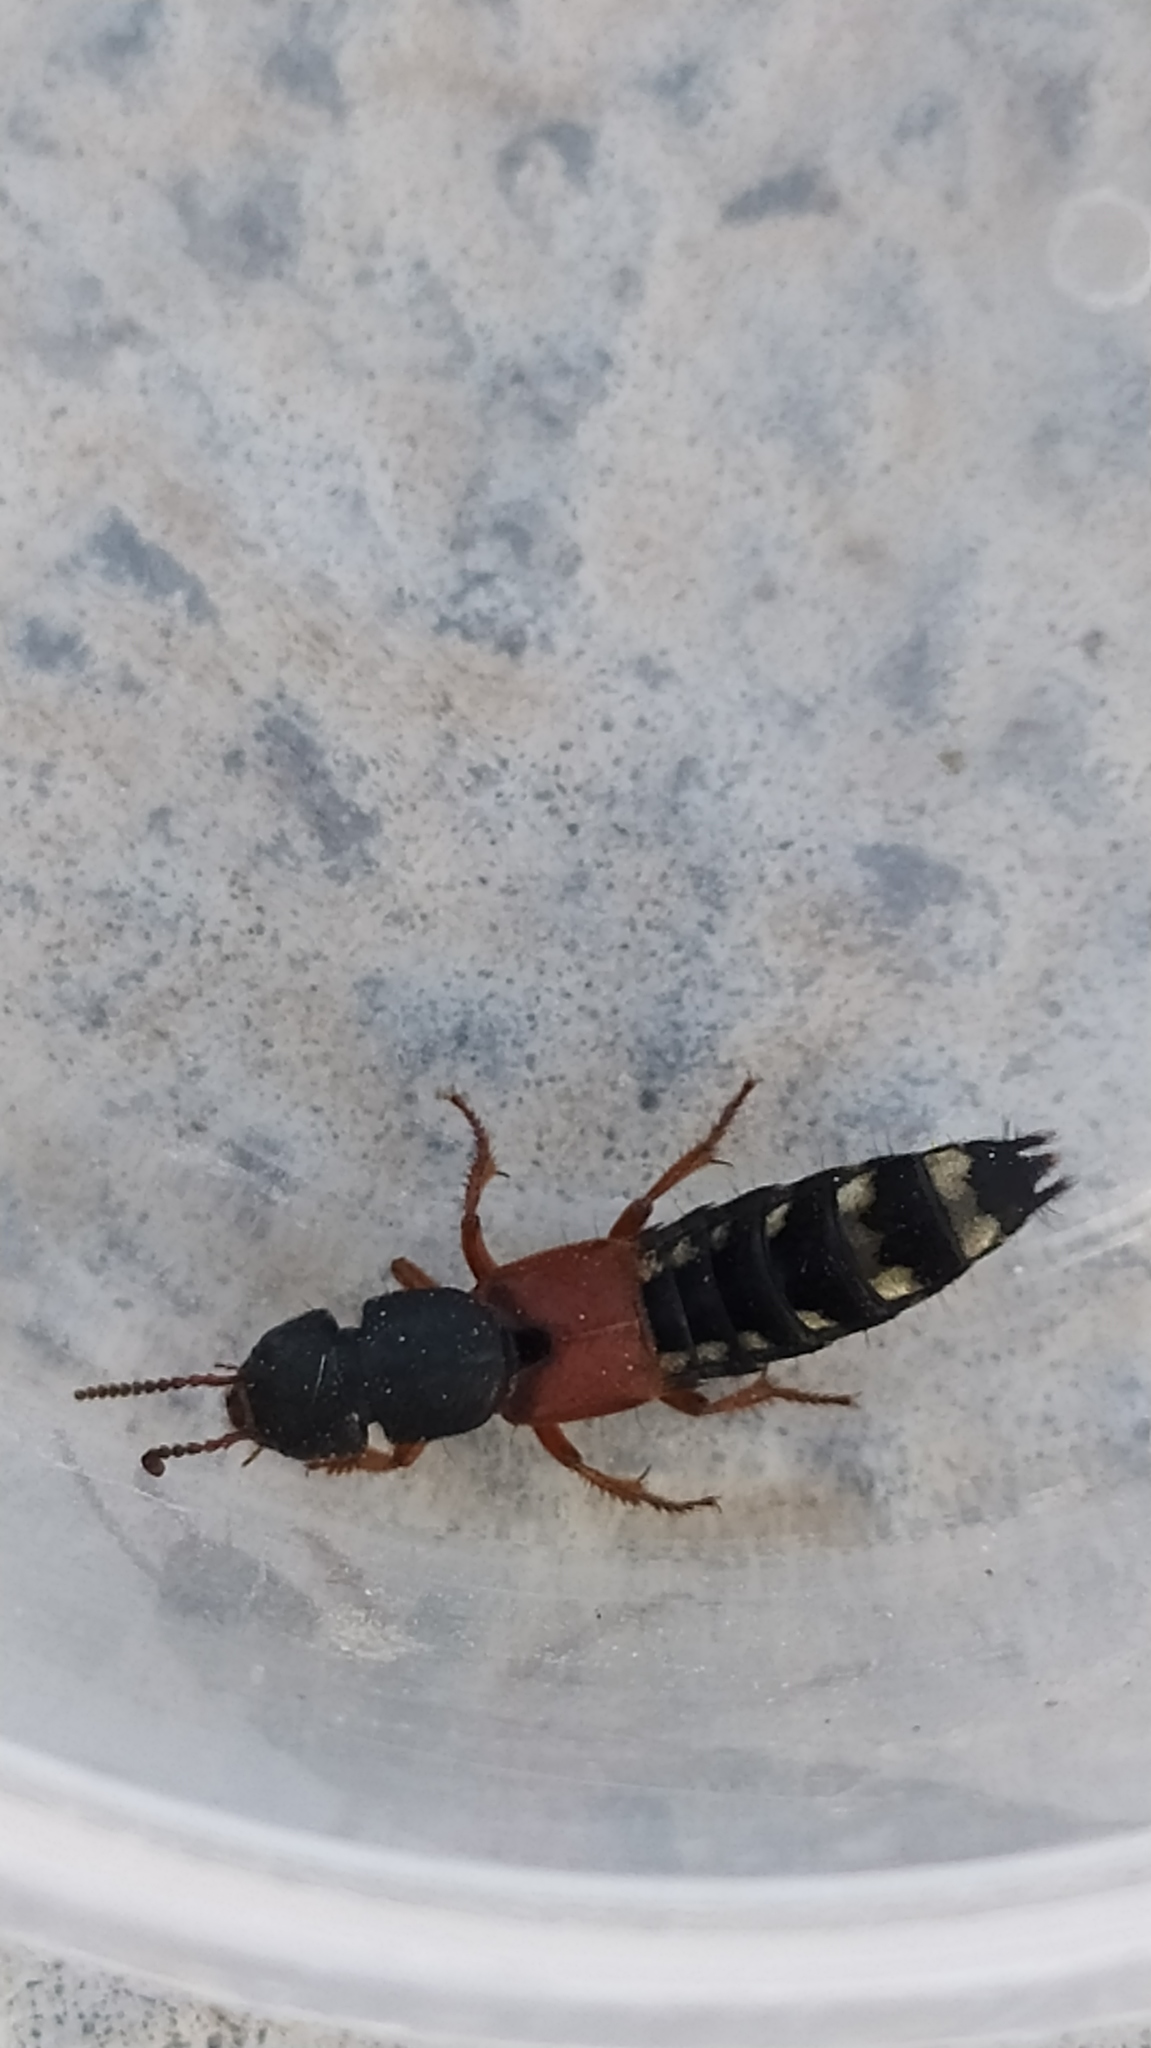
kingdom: Animalia
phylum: Arthropoda
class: Insecta
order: Coleoptera
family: Staphylinidae
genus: Platydracus
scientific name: Platydracus stercorarius
